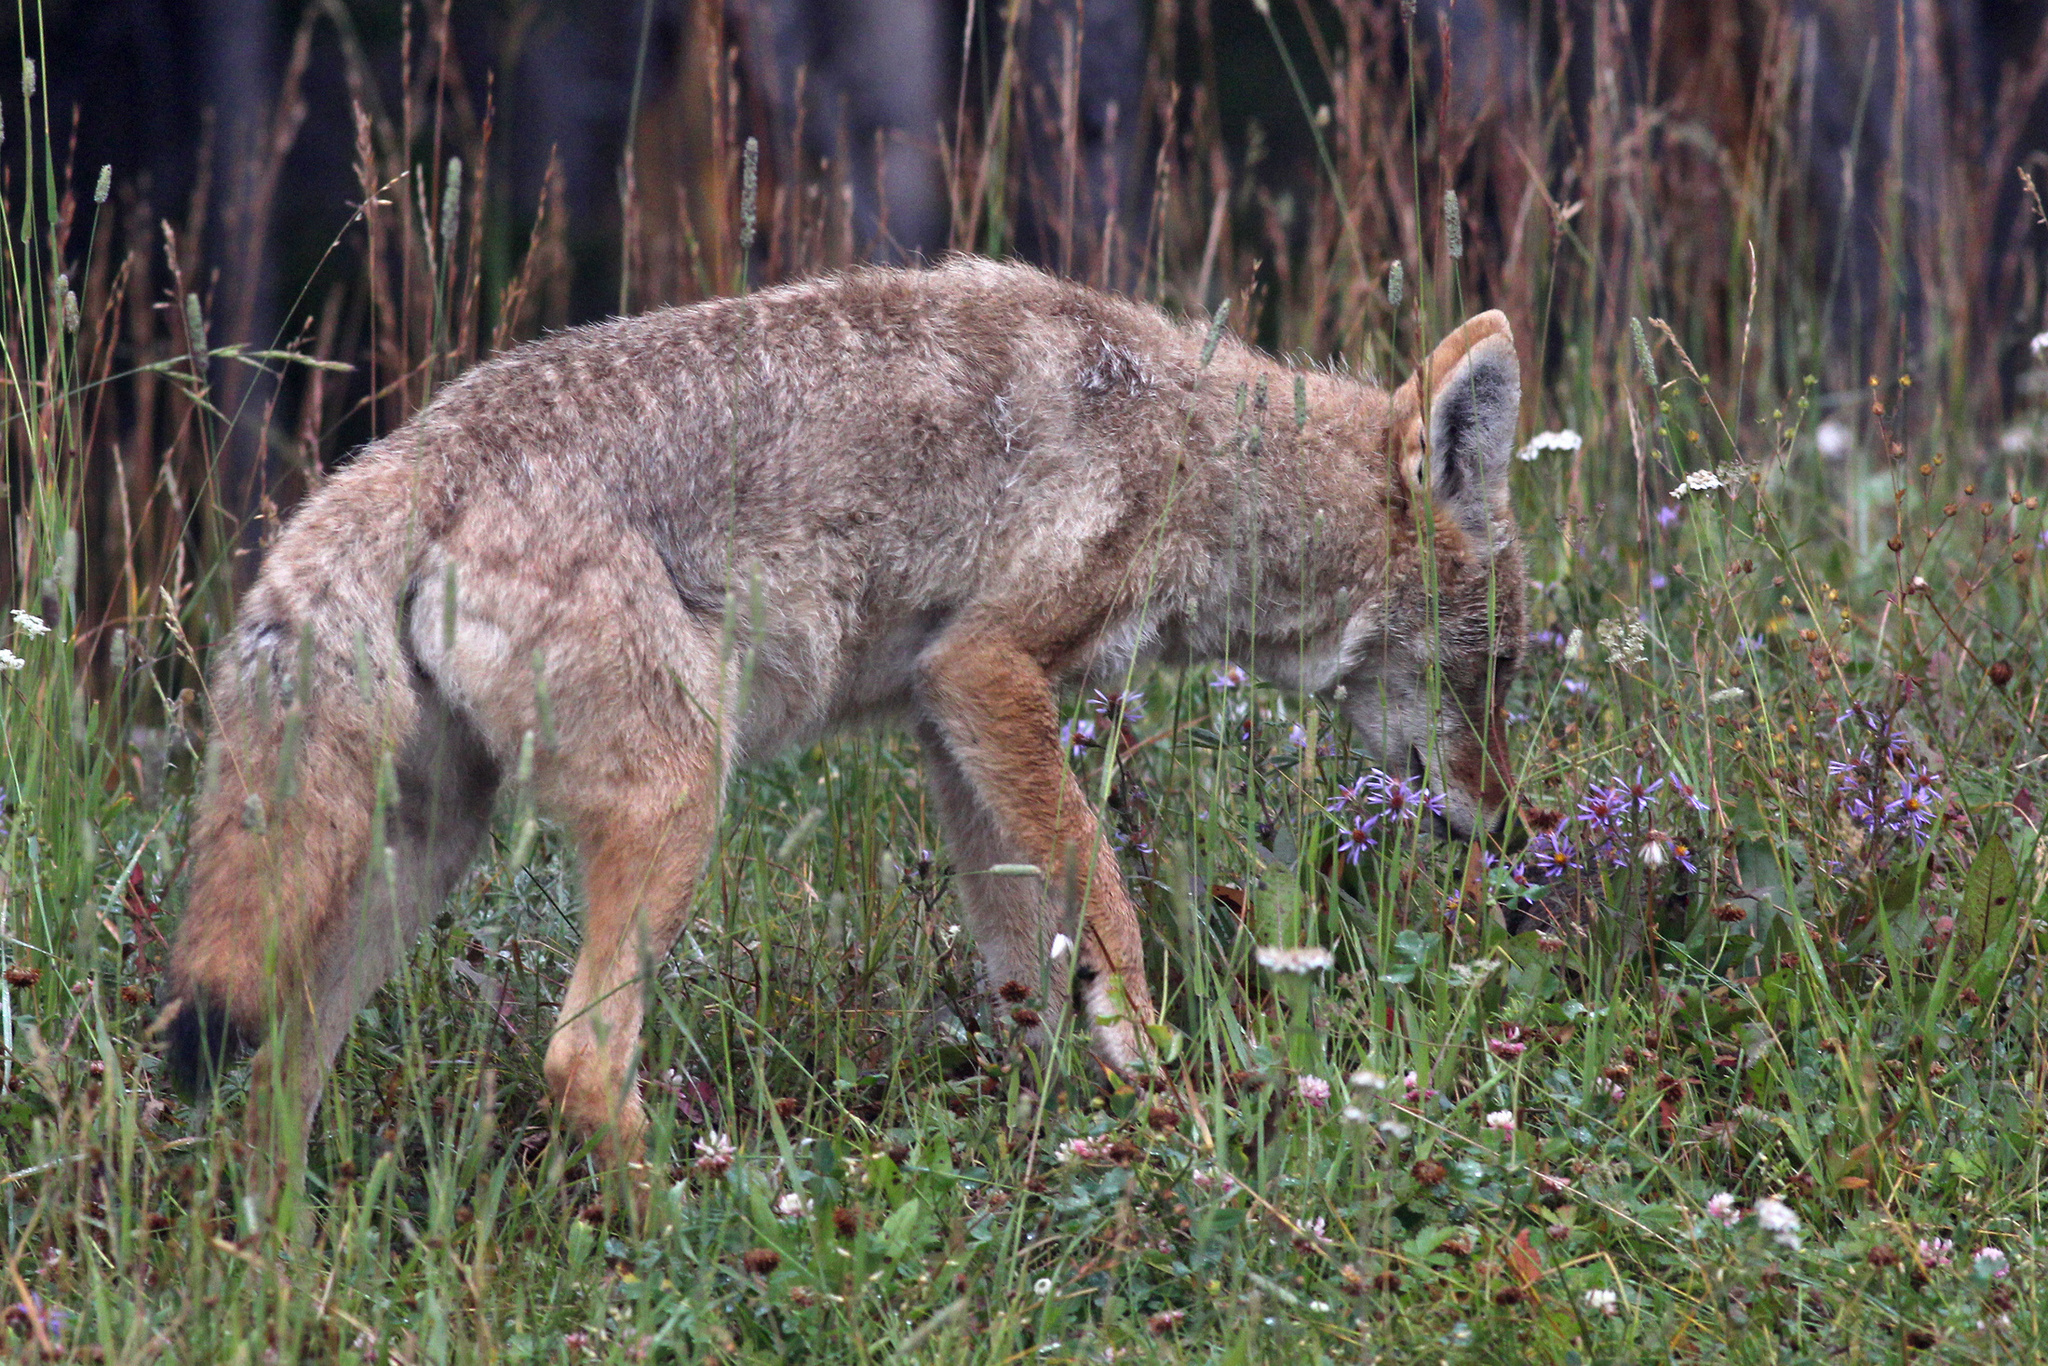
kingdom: Animalia
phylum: Chordata
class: Mammalia
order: Carnivora
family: Canidae
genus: Canis
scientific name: Canis latrans
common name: Coyote
